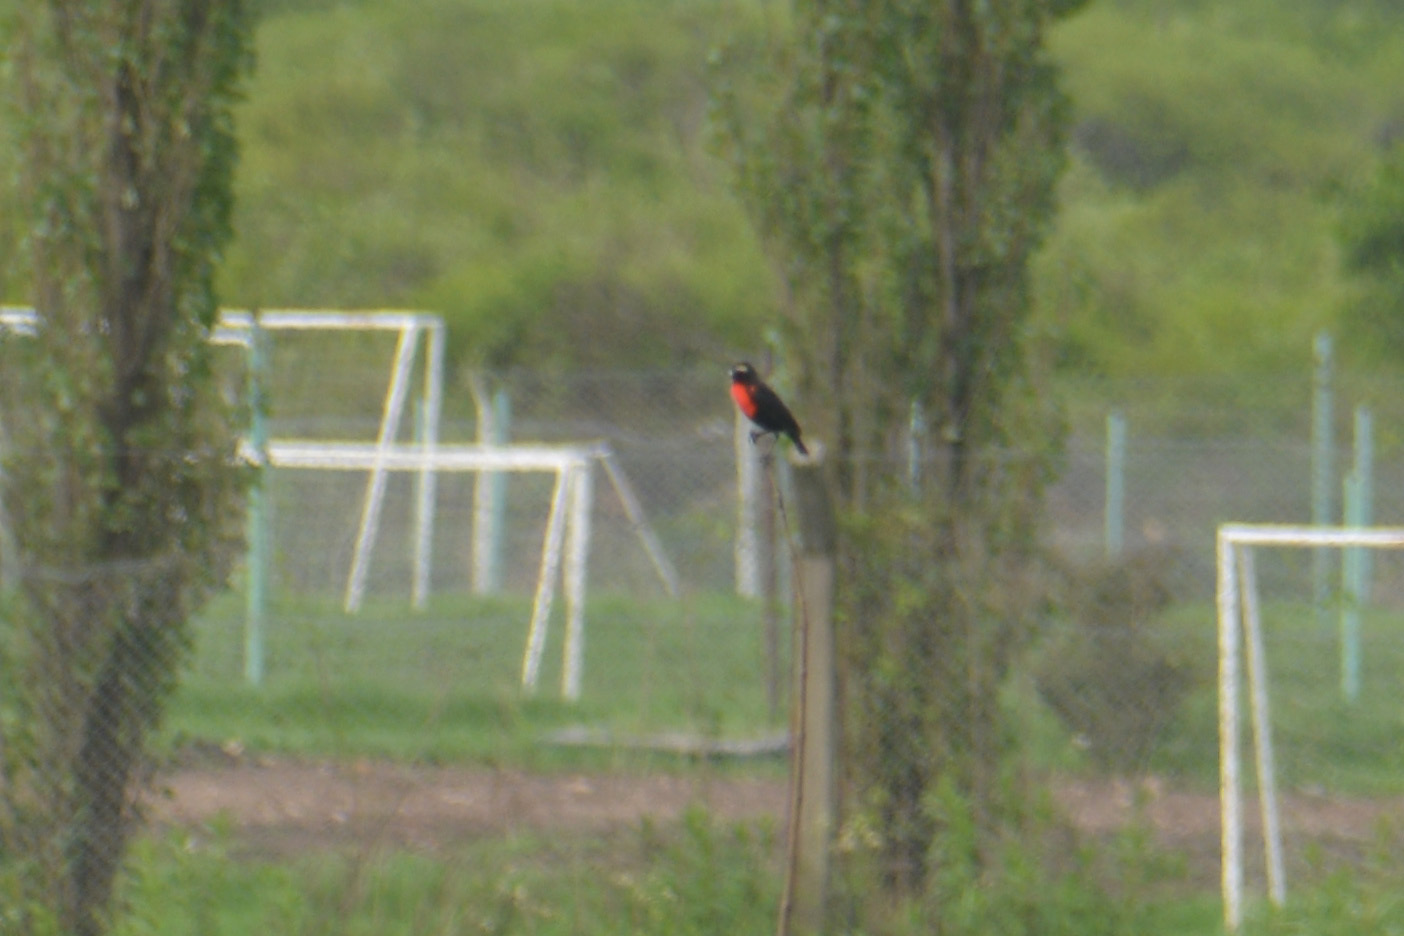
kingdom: Animalia
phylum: Chordata
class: Aves
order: Passeriformes
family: Icteridae
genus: Sturnella
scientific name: Sturnella superciliaris
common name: White-browed blackbird
